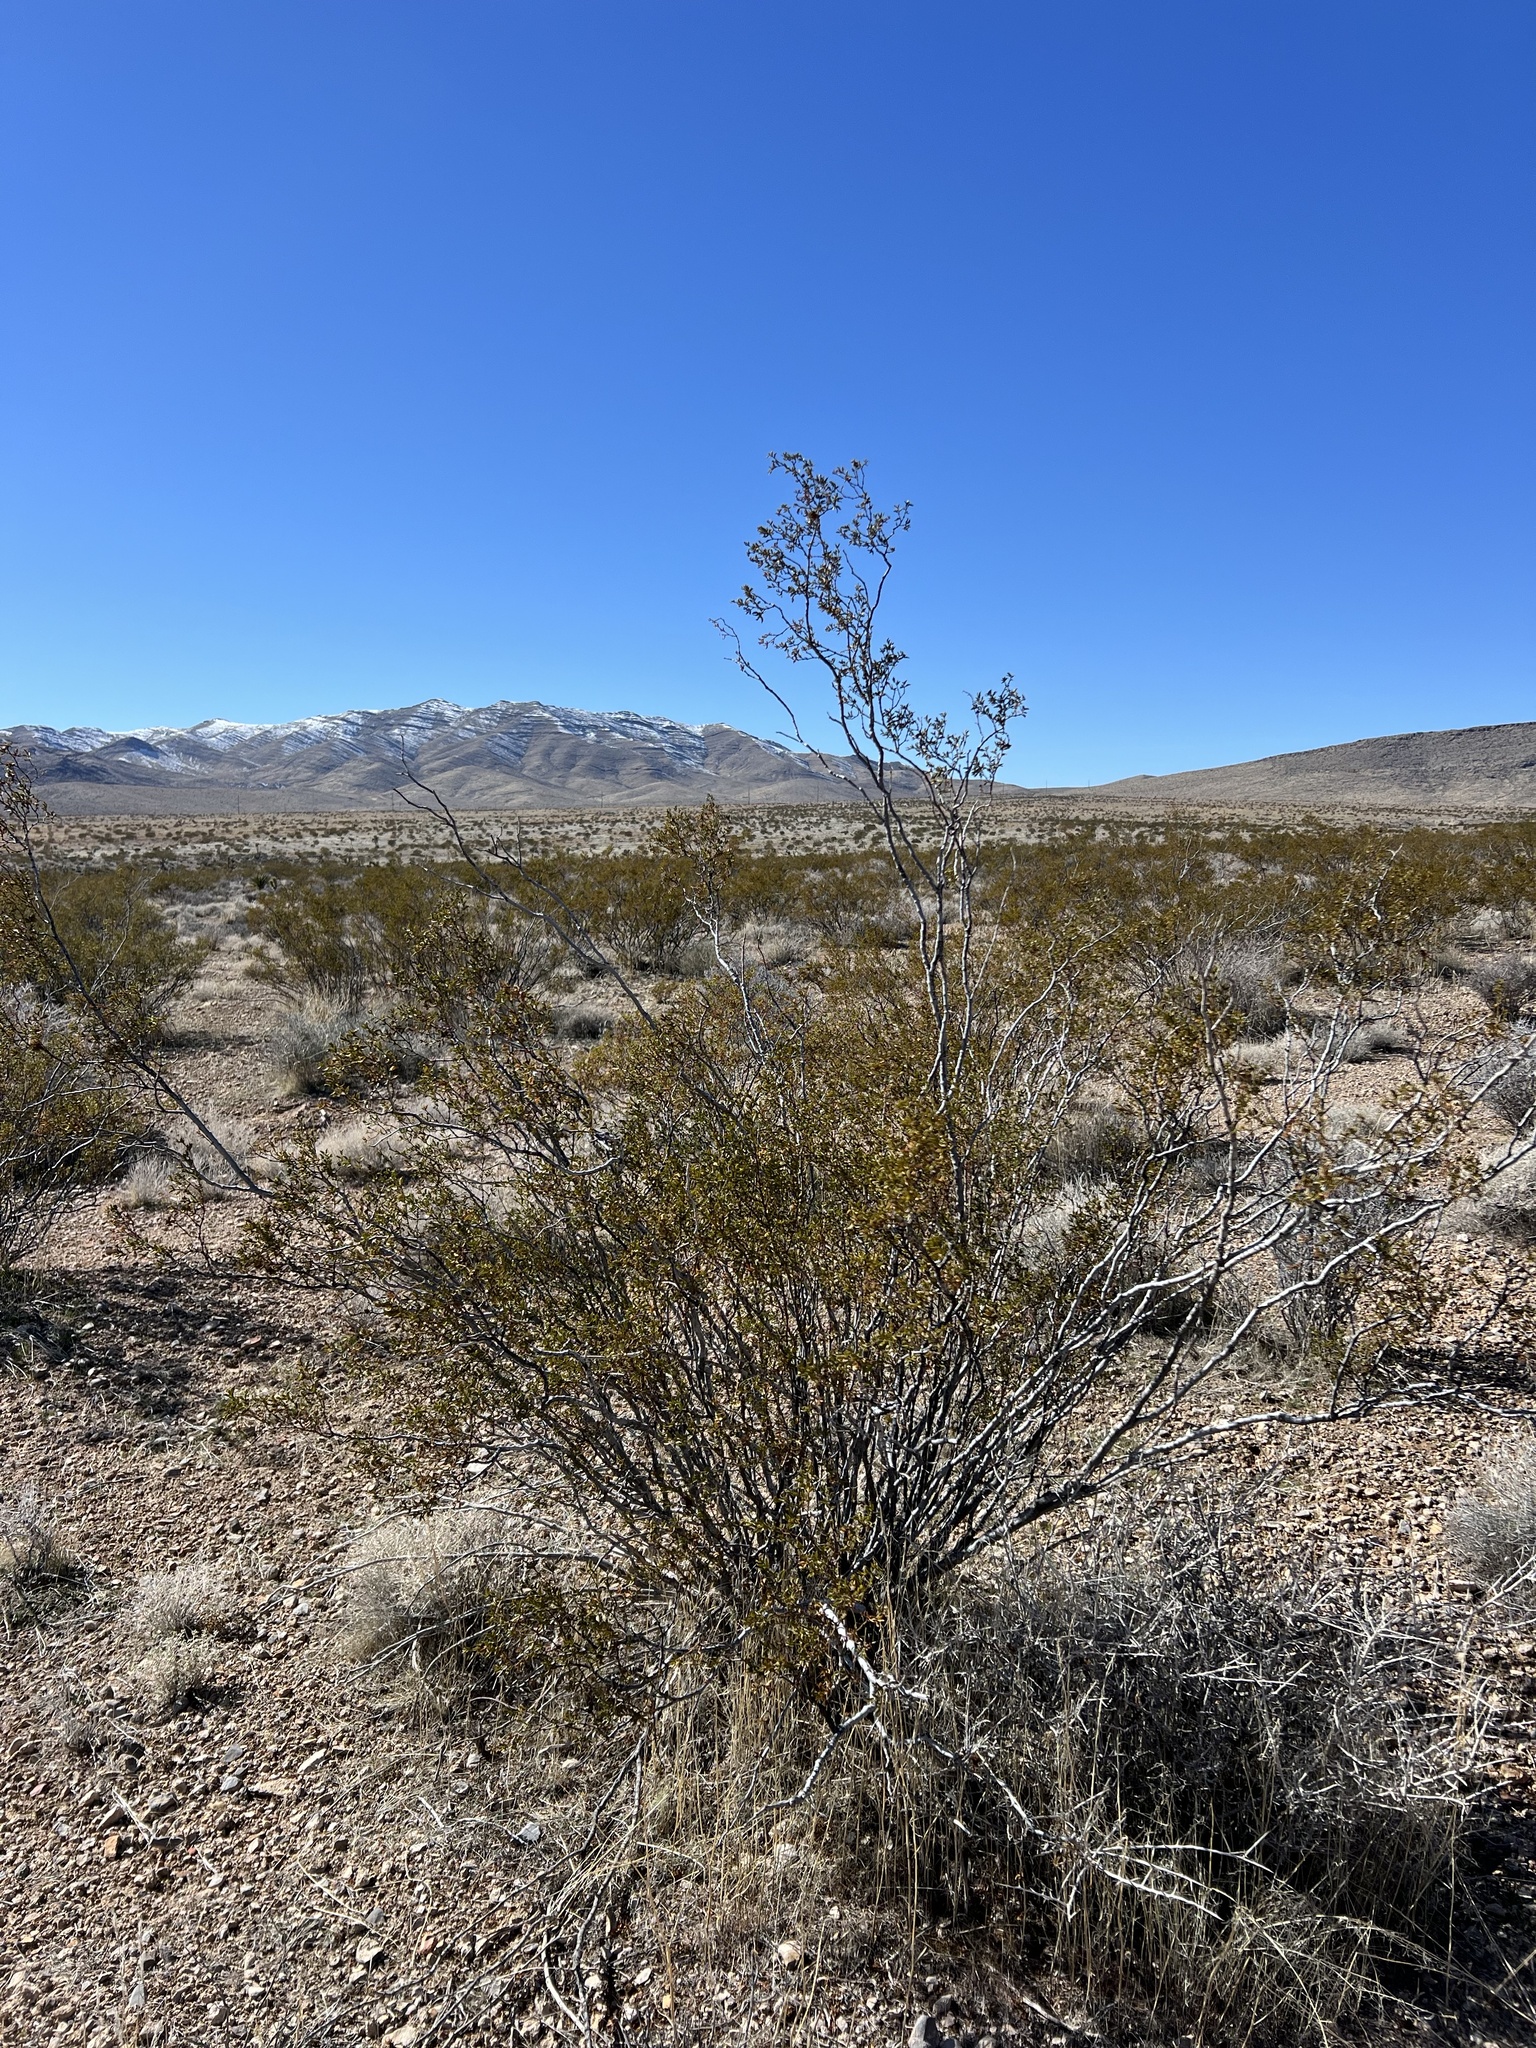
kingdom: Plantae
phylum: Tracheophyta
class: Magnoliopsida
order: Zygophyllales
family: Zygophyllaceae
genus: Larrea
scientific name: Larrea tridentata
